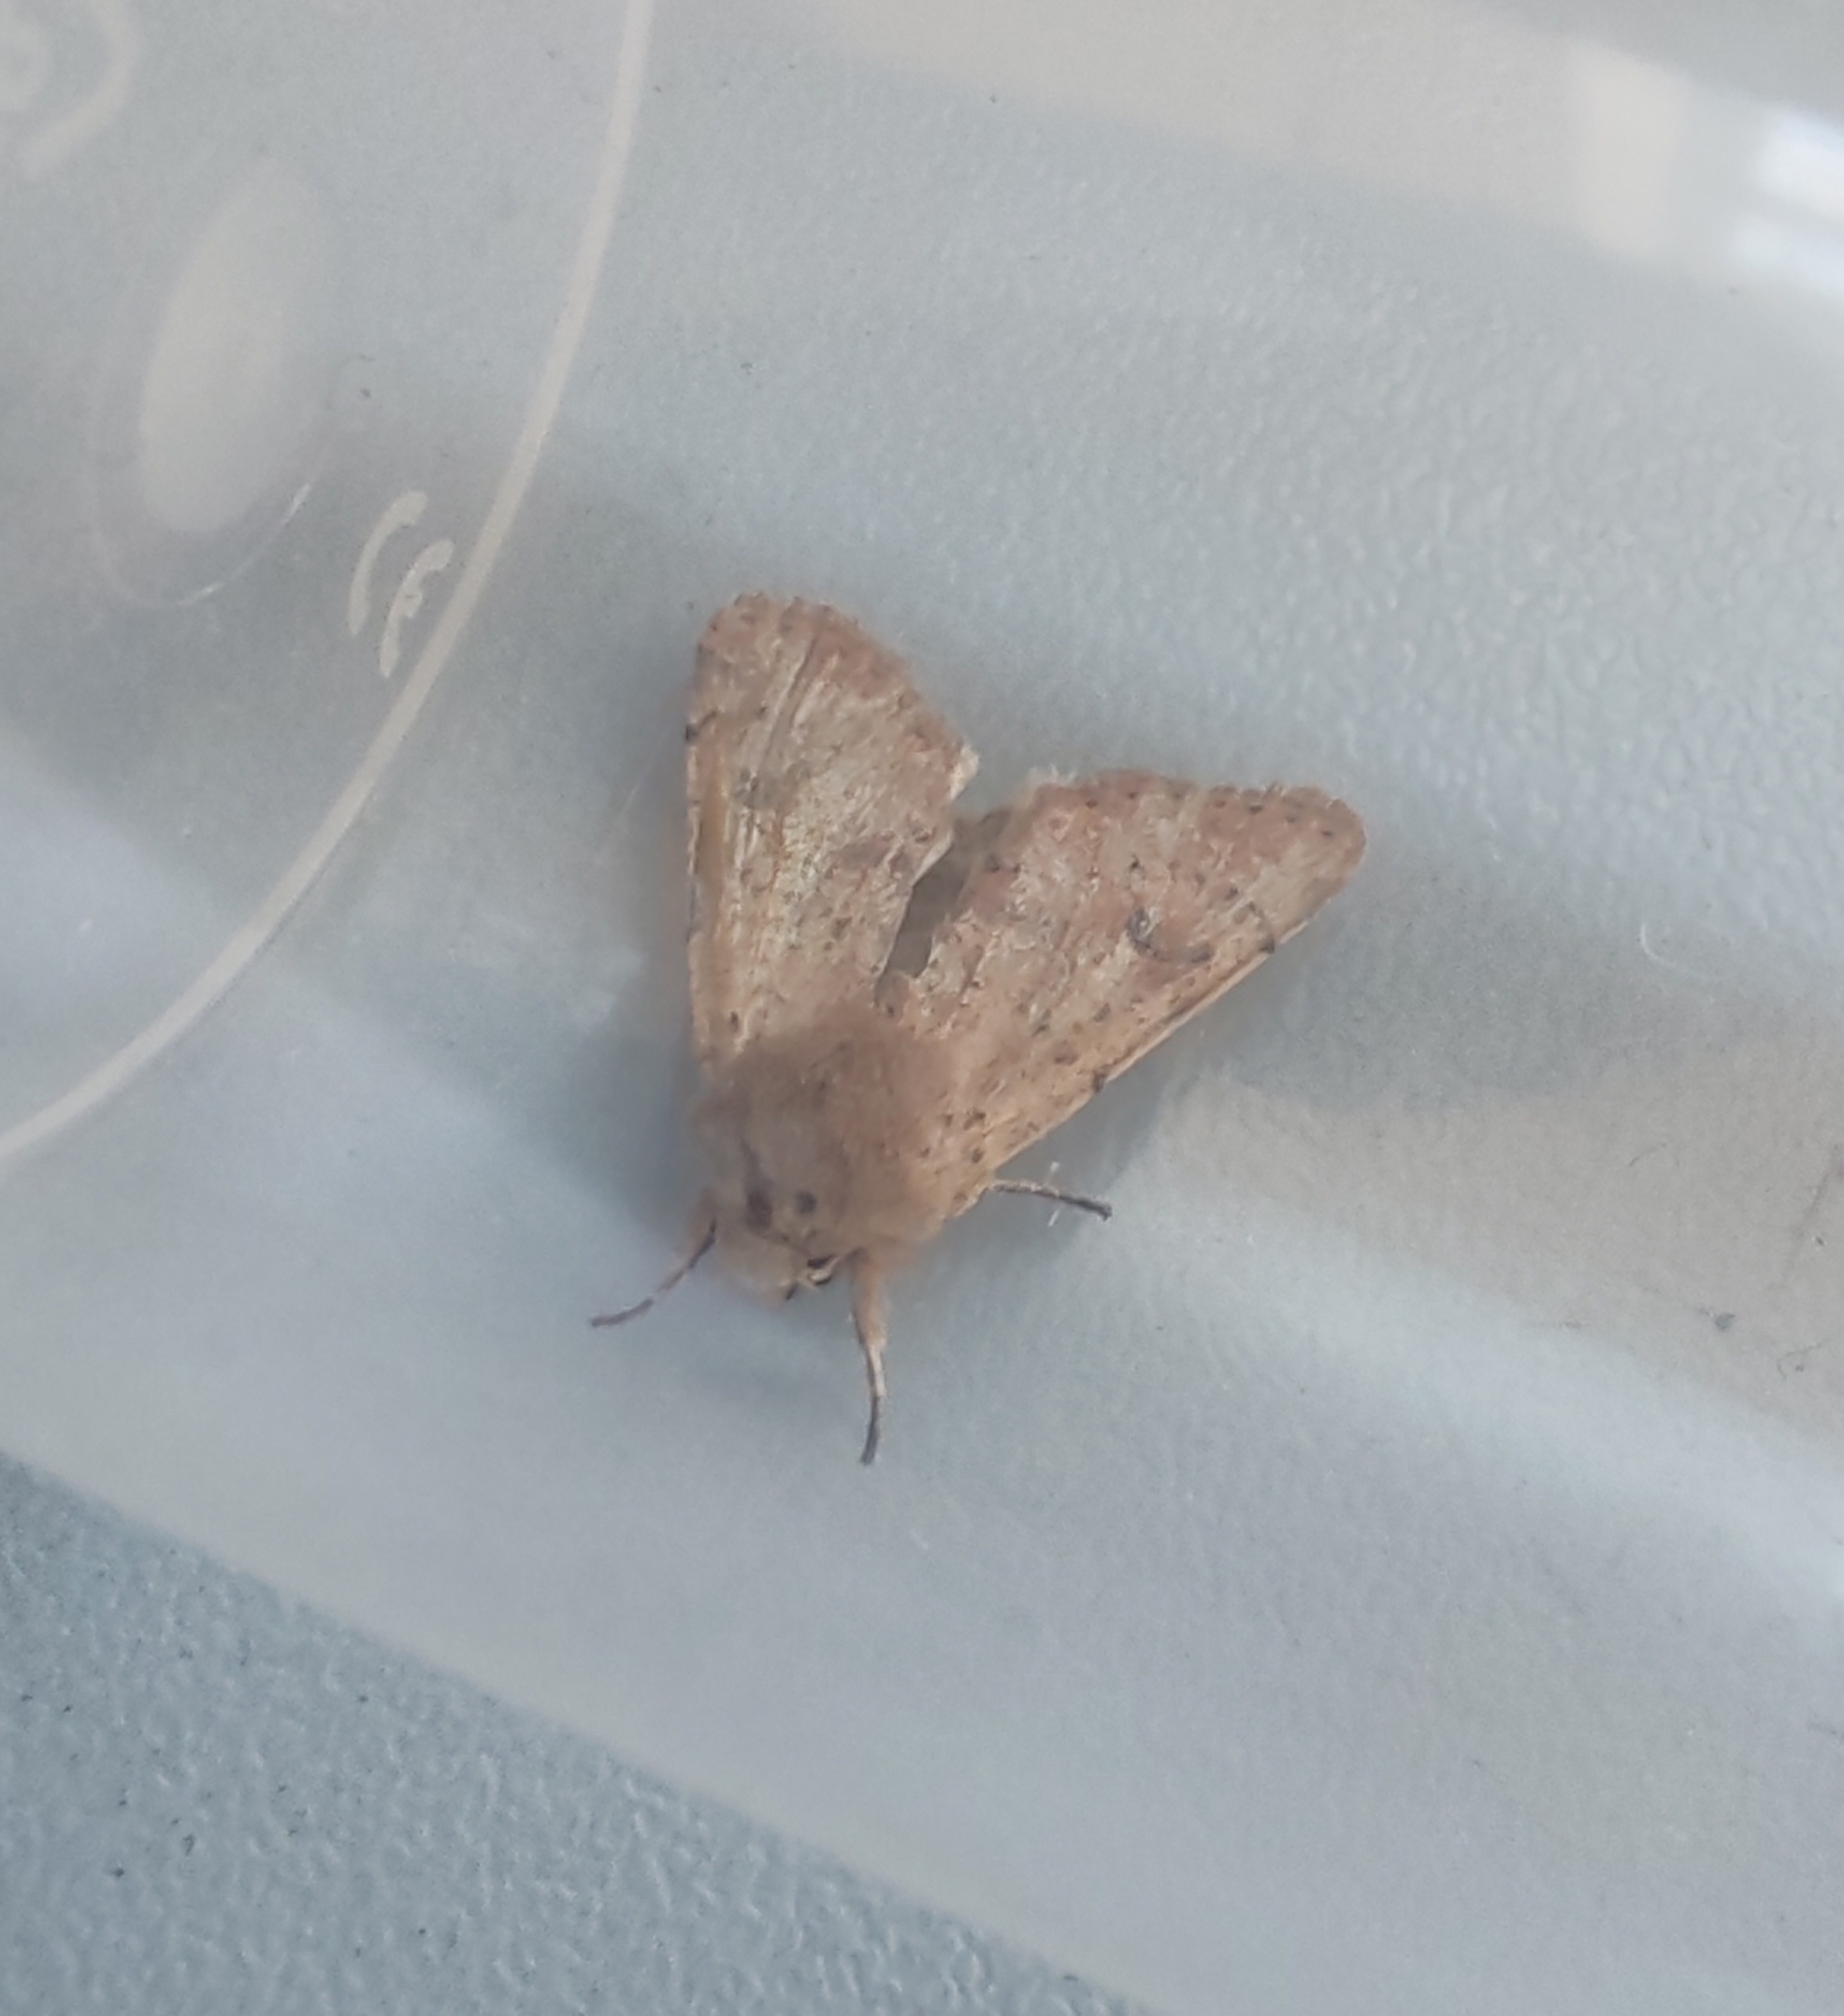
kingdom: Animalia
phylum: Arthropoda
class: Insecta
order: Lepidoptera
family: Noctuidae
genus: Orthosia
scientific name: Orthosia cruda
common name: Small quaker
